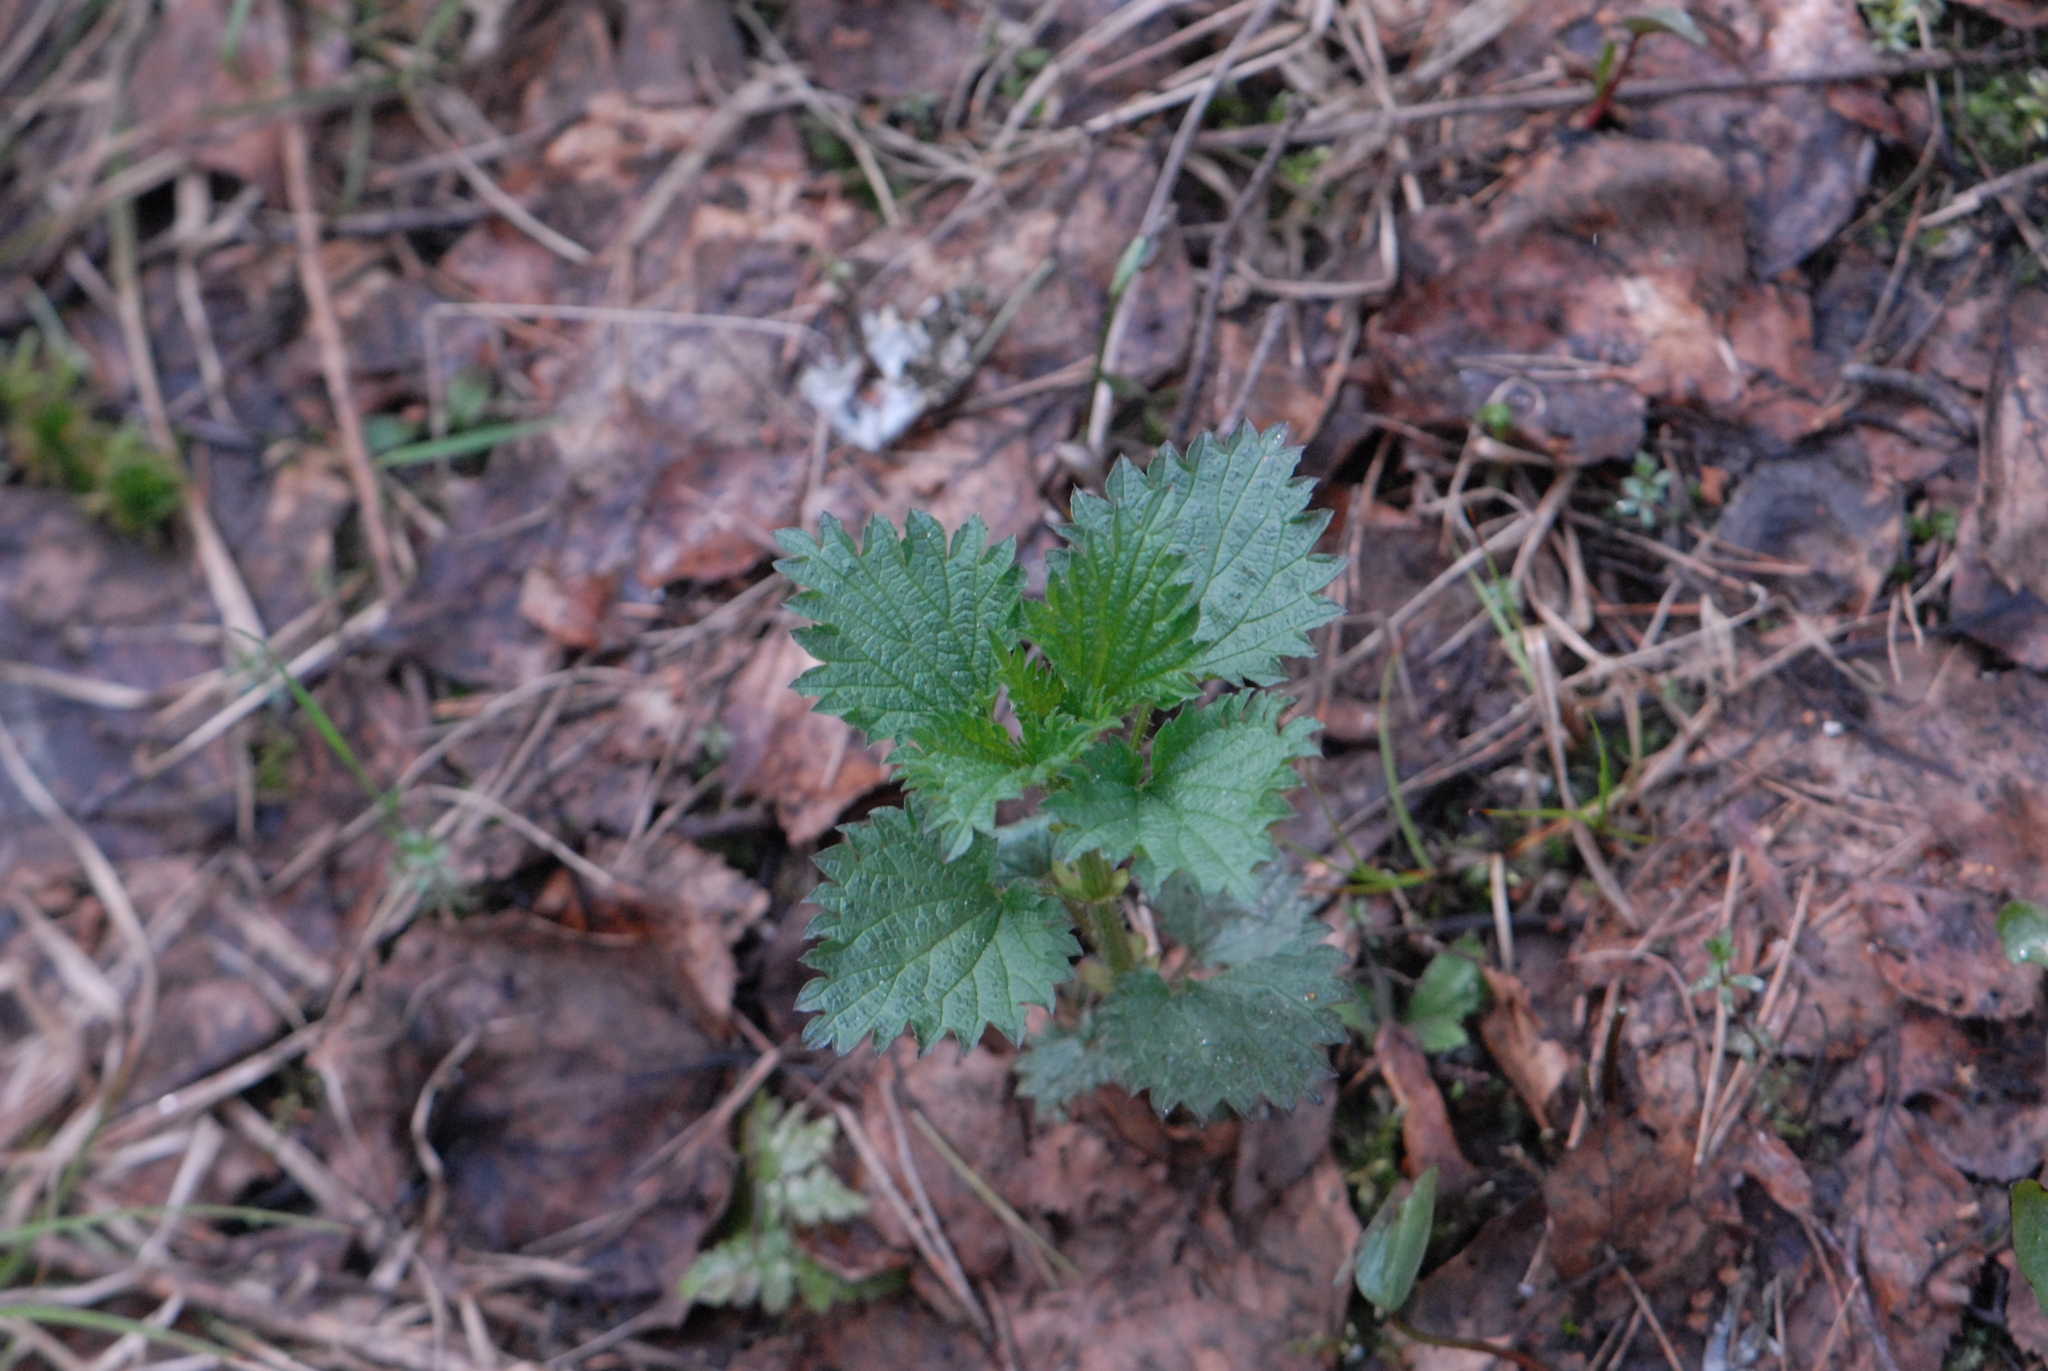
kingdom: Plantae
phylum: Tracheophyta
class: Magnoliopsida
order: Rosales
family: Urticaceae
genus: Urtica
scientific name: Urtica dioica
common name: Common nettle
